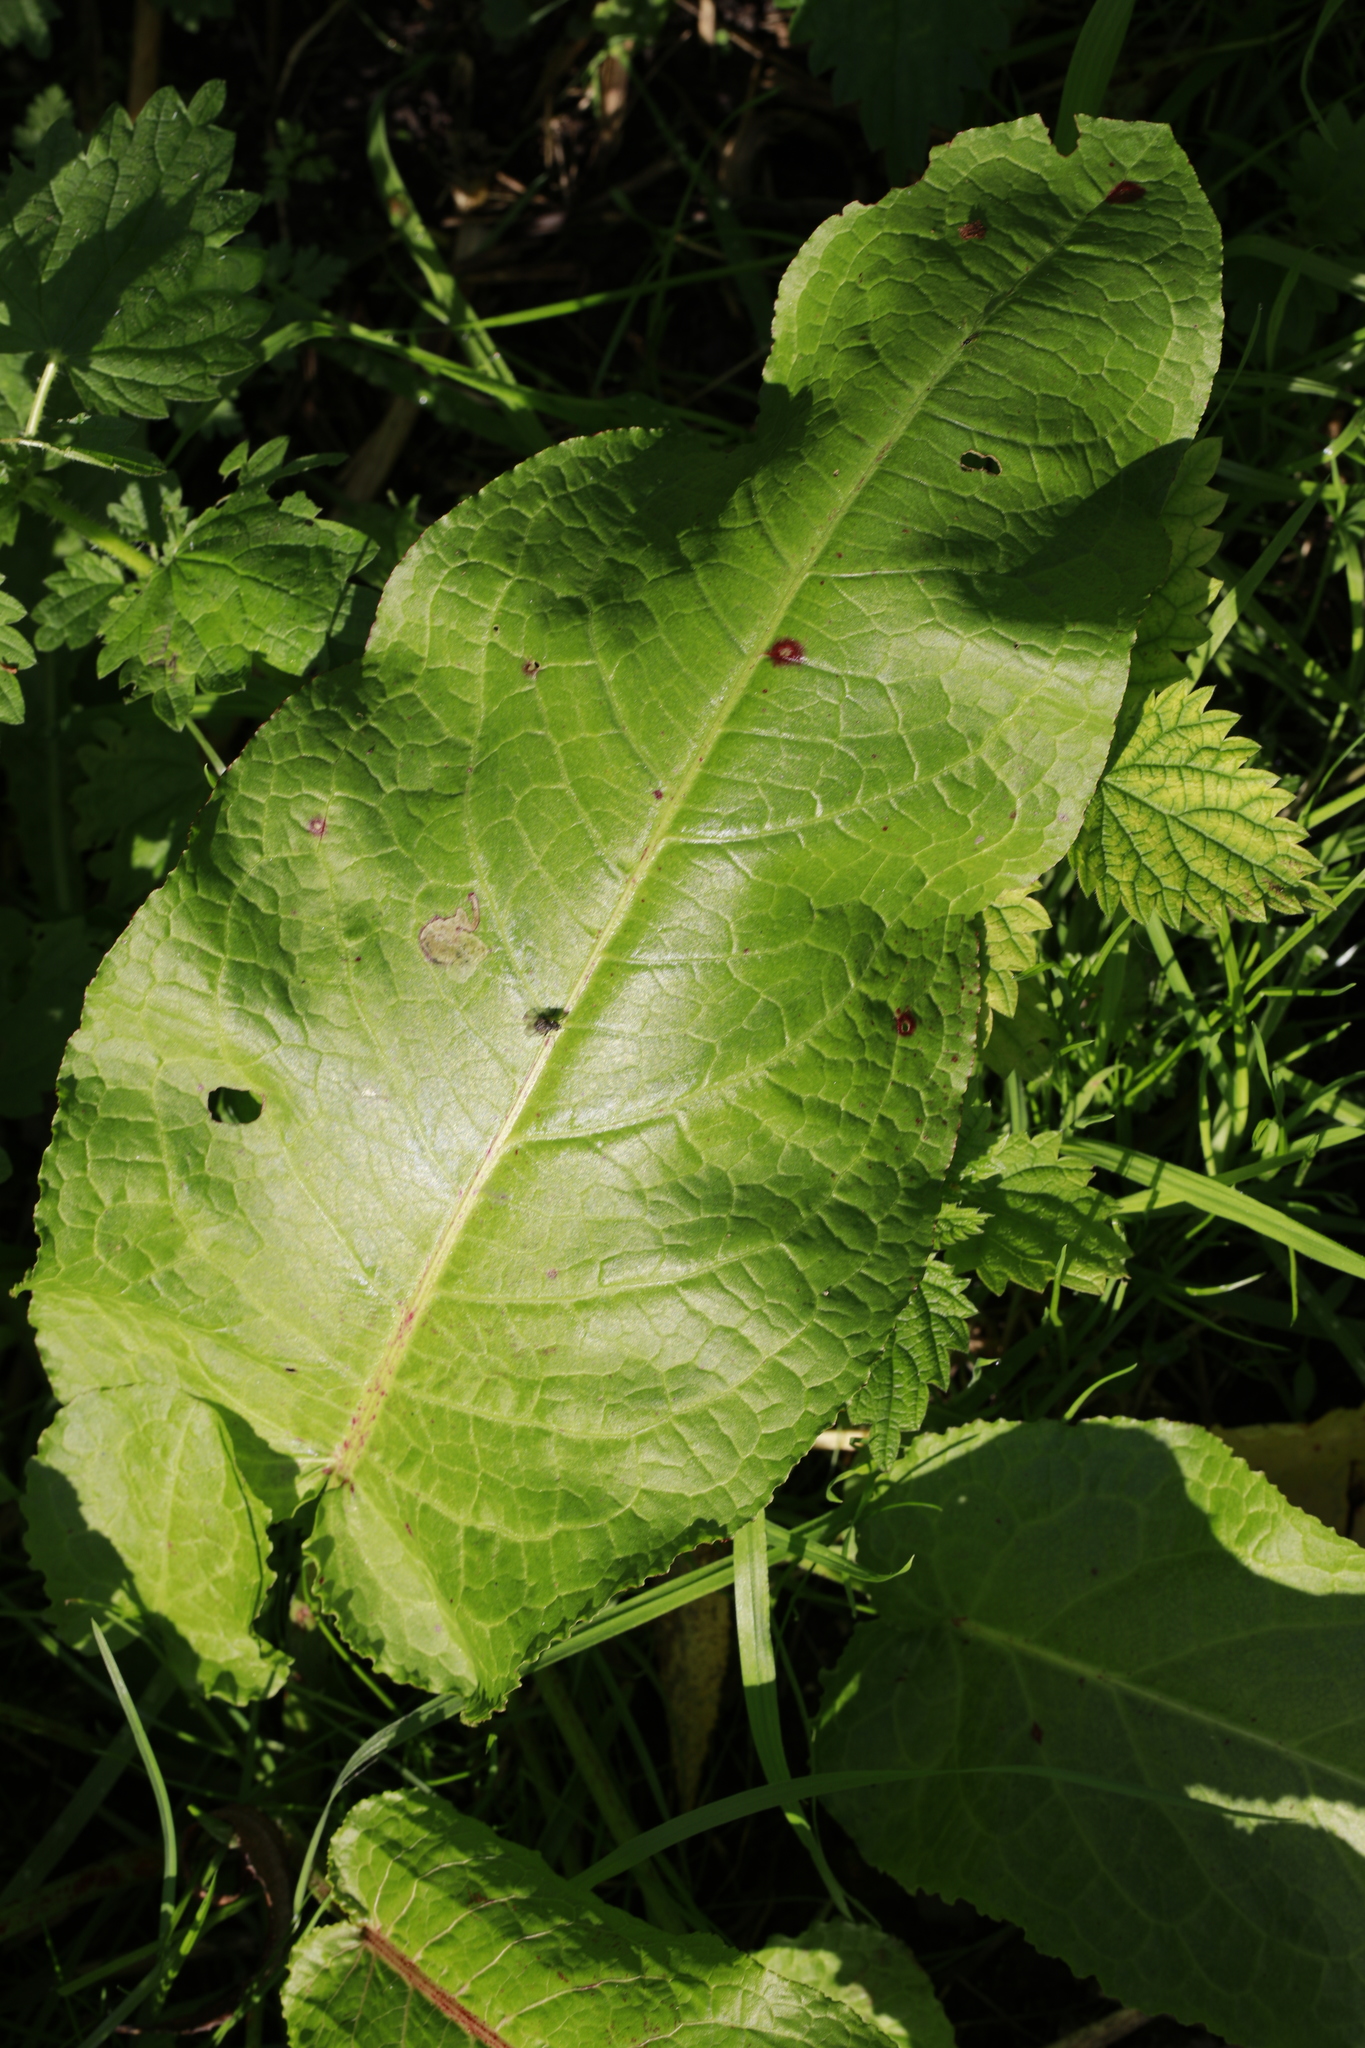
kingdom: Plantae
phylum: Tracheophyta
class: Magnoliopsida
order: Caryophyllales
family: Polygonaceae
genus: Rumex
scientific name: Rumex obtusifolius
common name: Bitter dock
